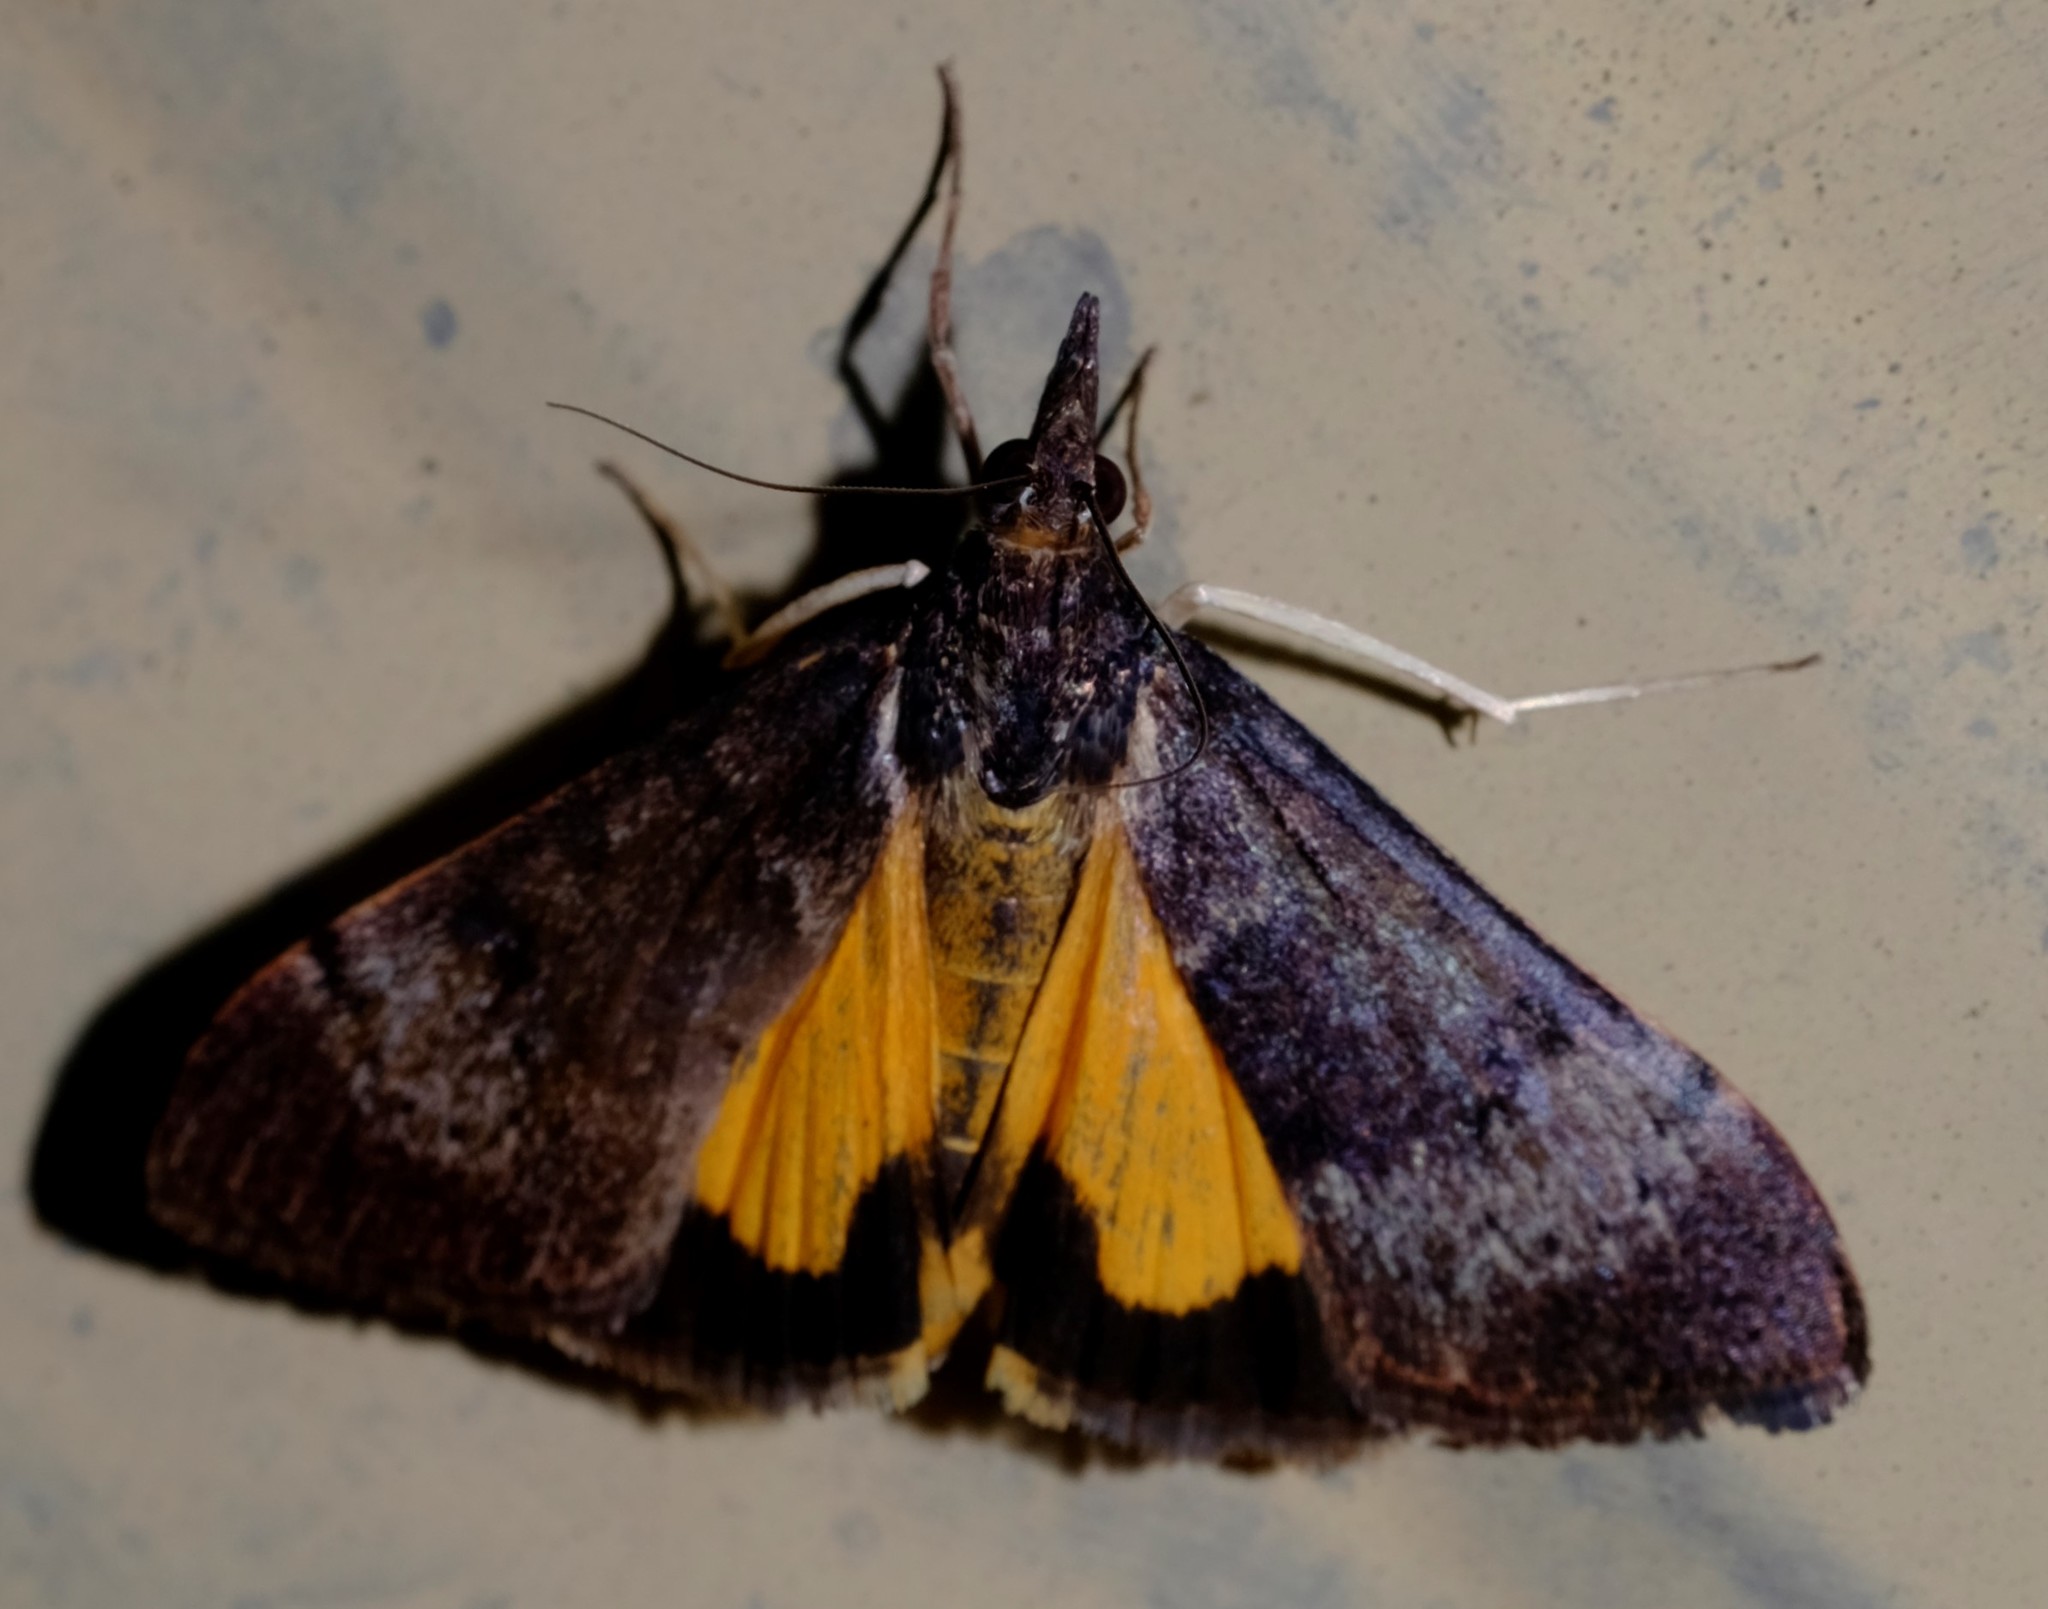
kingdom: Animalia
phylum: Arthropoda
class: Insecta
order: Lepidoptera
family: Crambidae
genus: Uresiphita
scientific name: Uresiphita ornithopteralis
